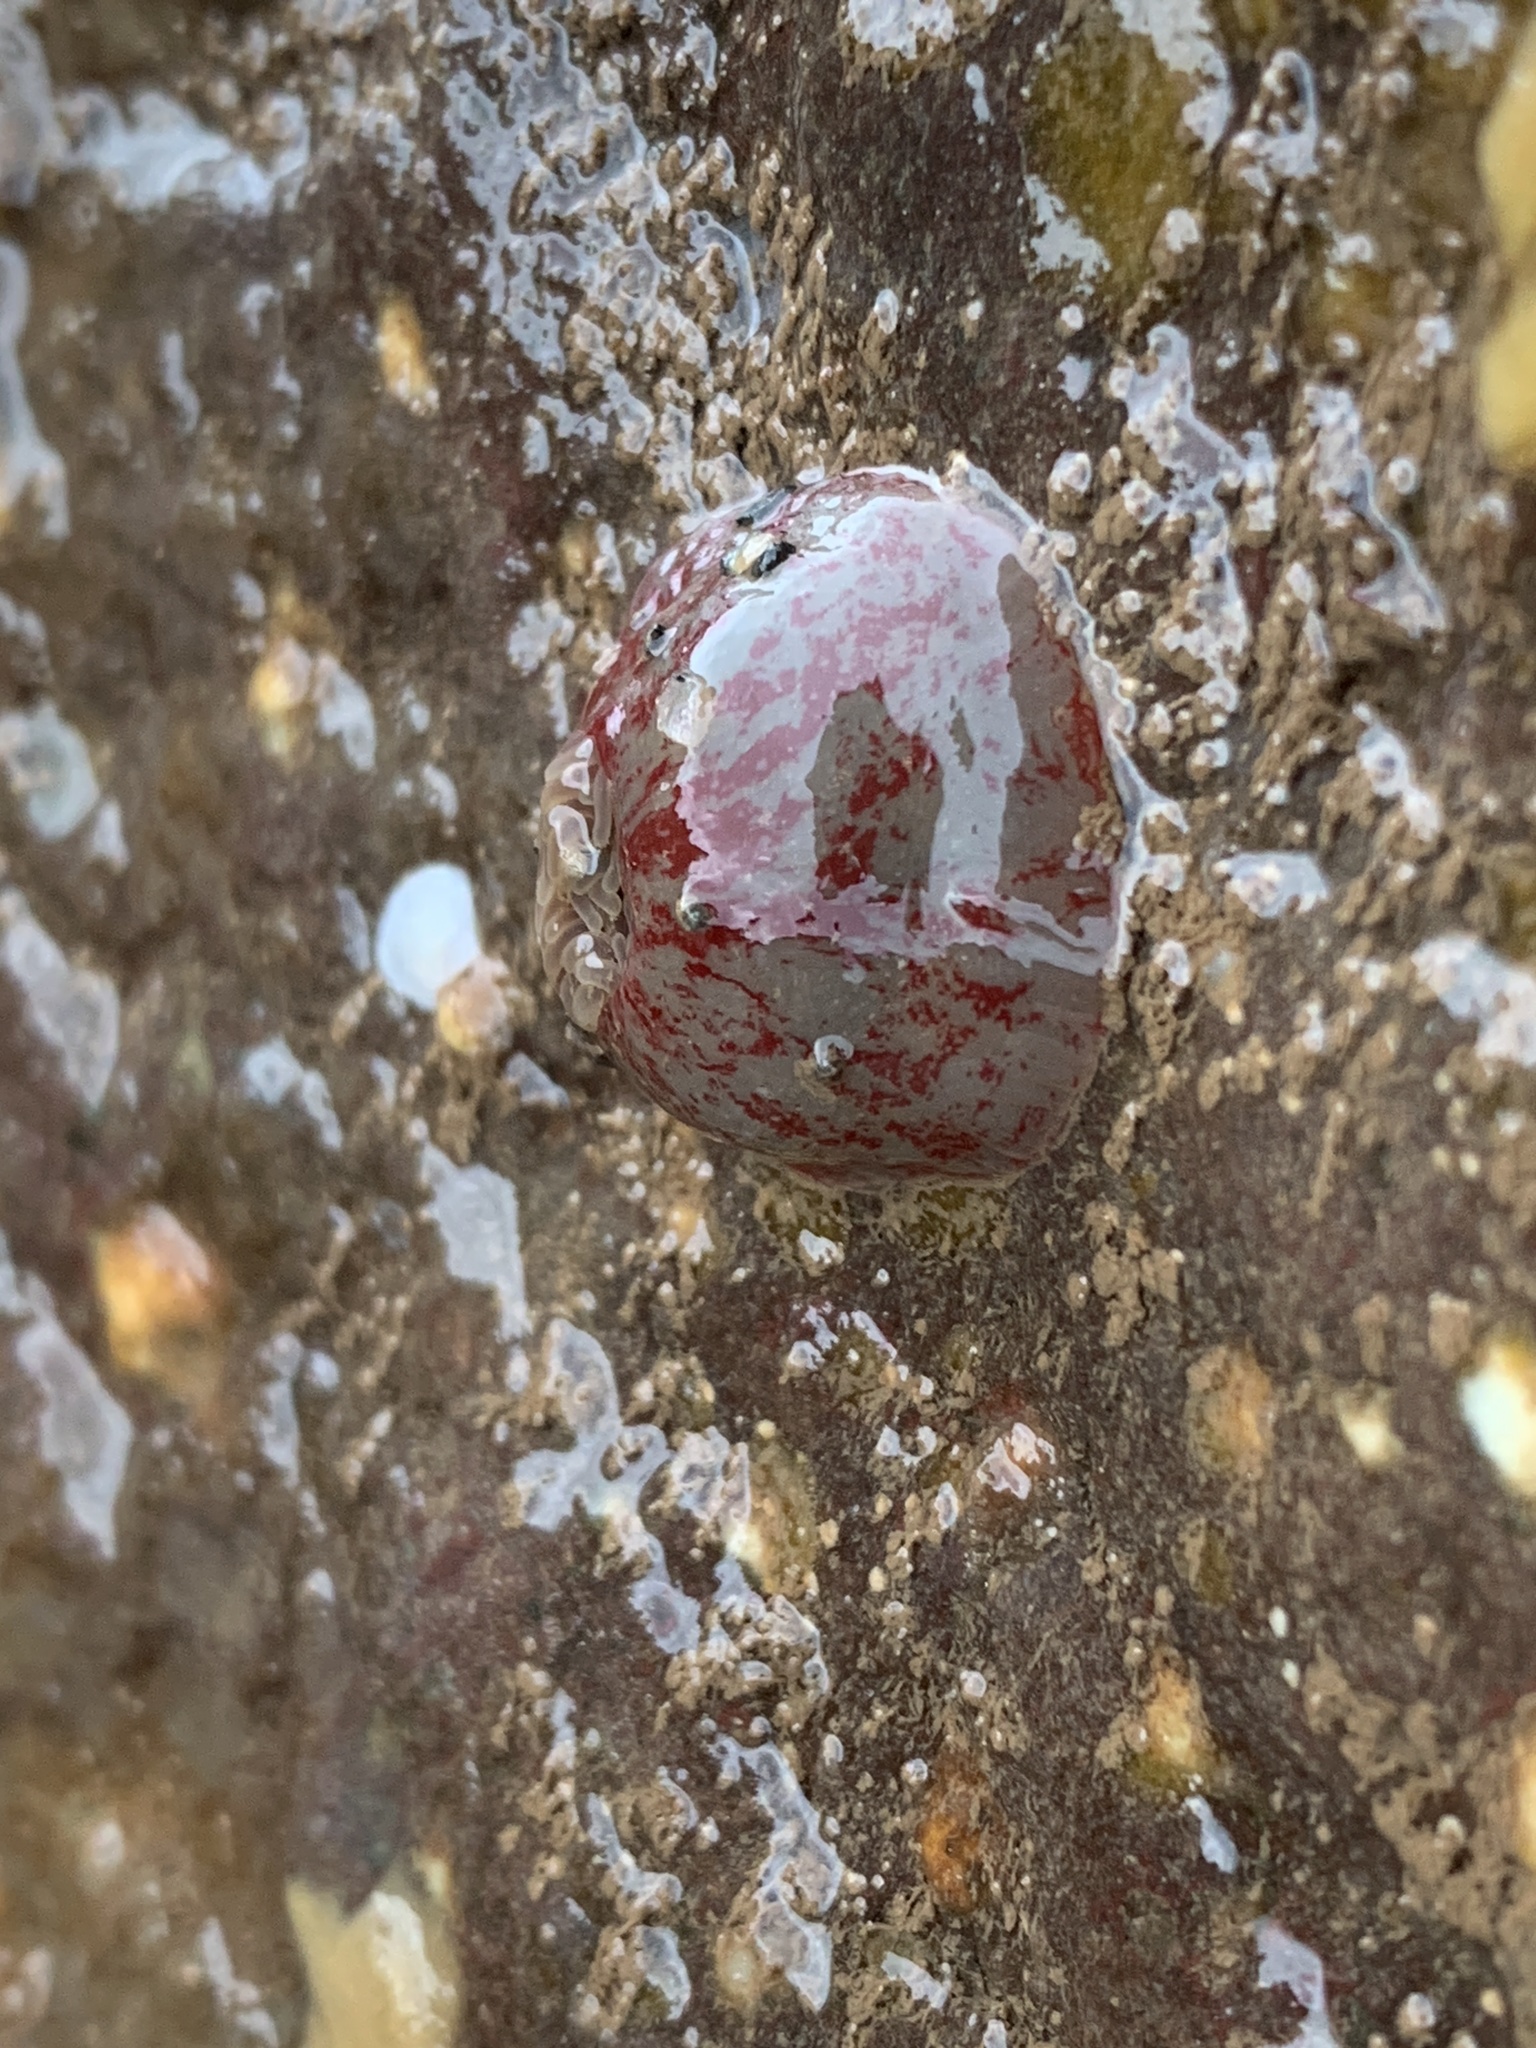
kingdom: Animalia
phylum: Cnidaria
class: Anthozoa
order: Actiniaria
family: Actiniidae
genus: Urticina
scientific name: Urticina crassicornis
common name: Mottled anemone
